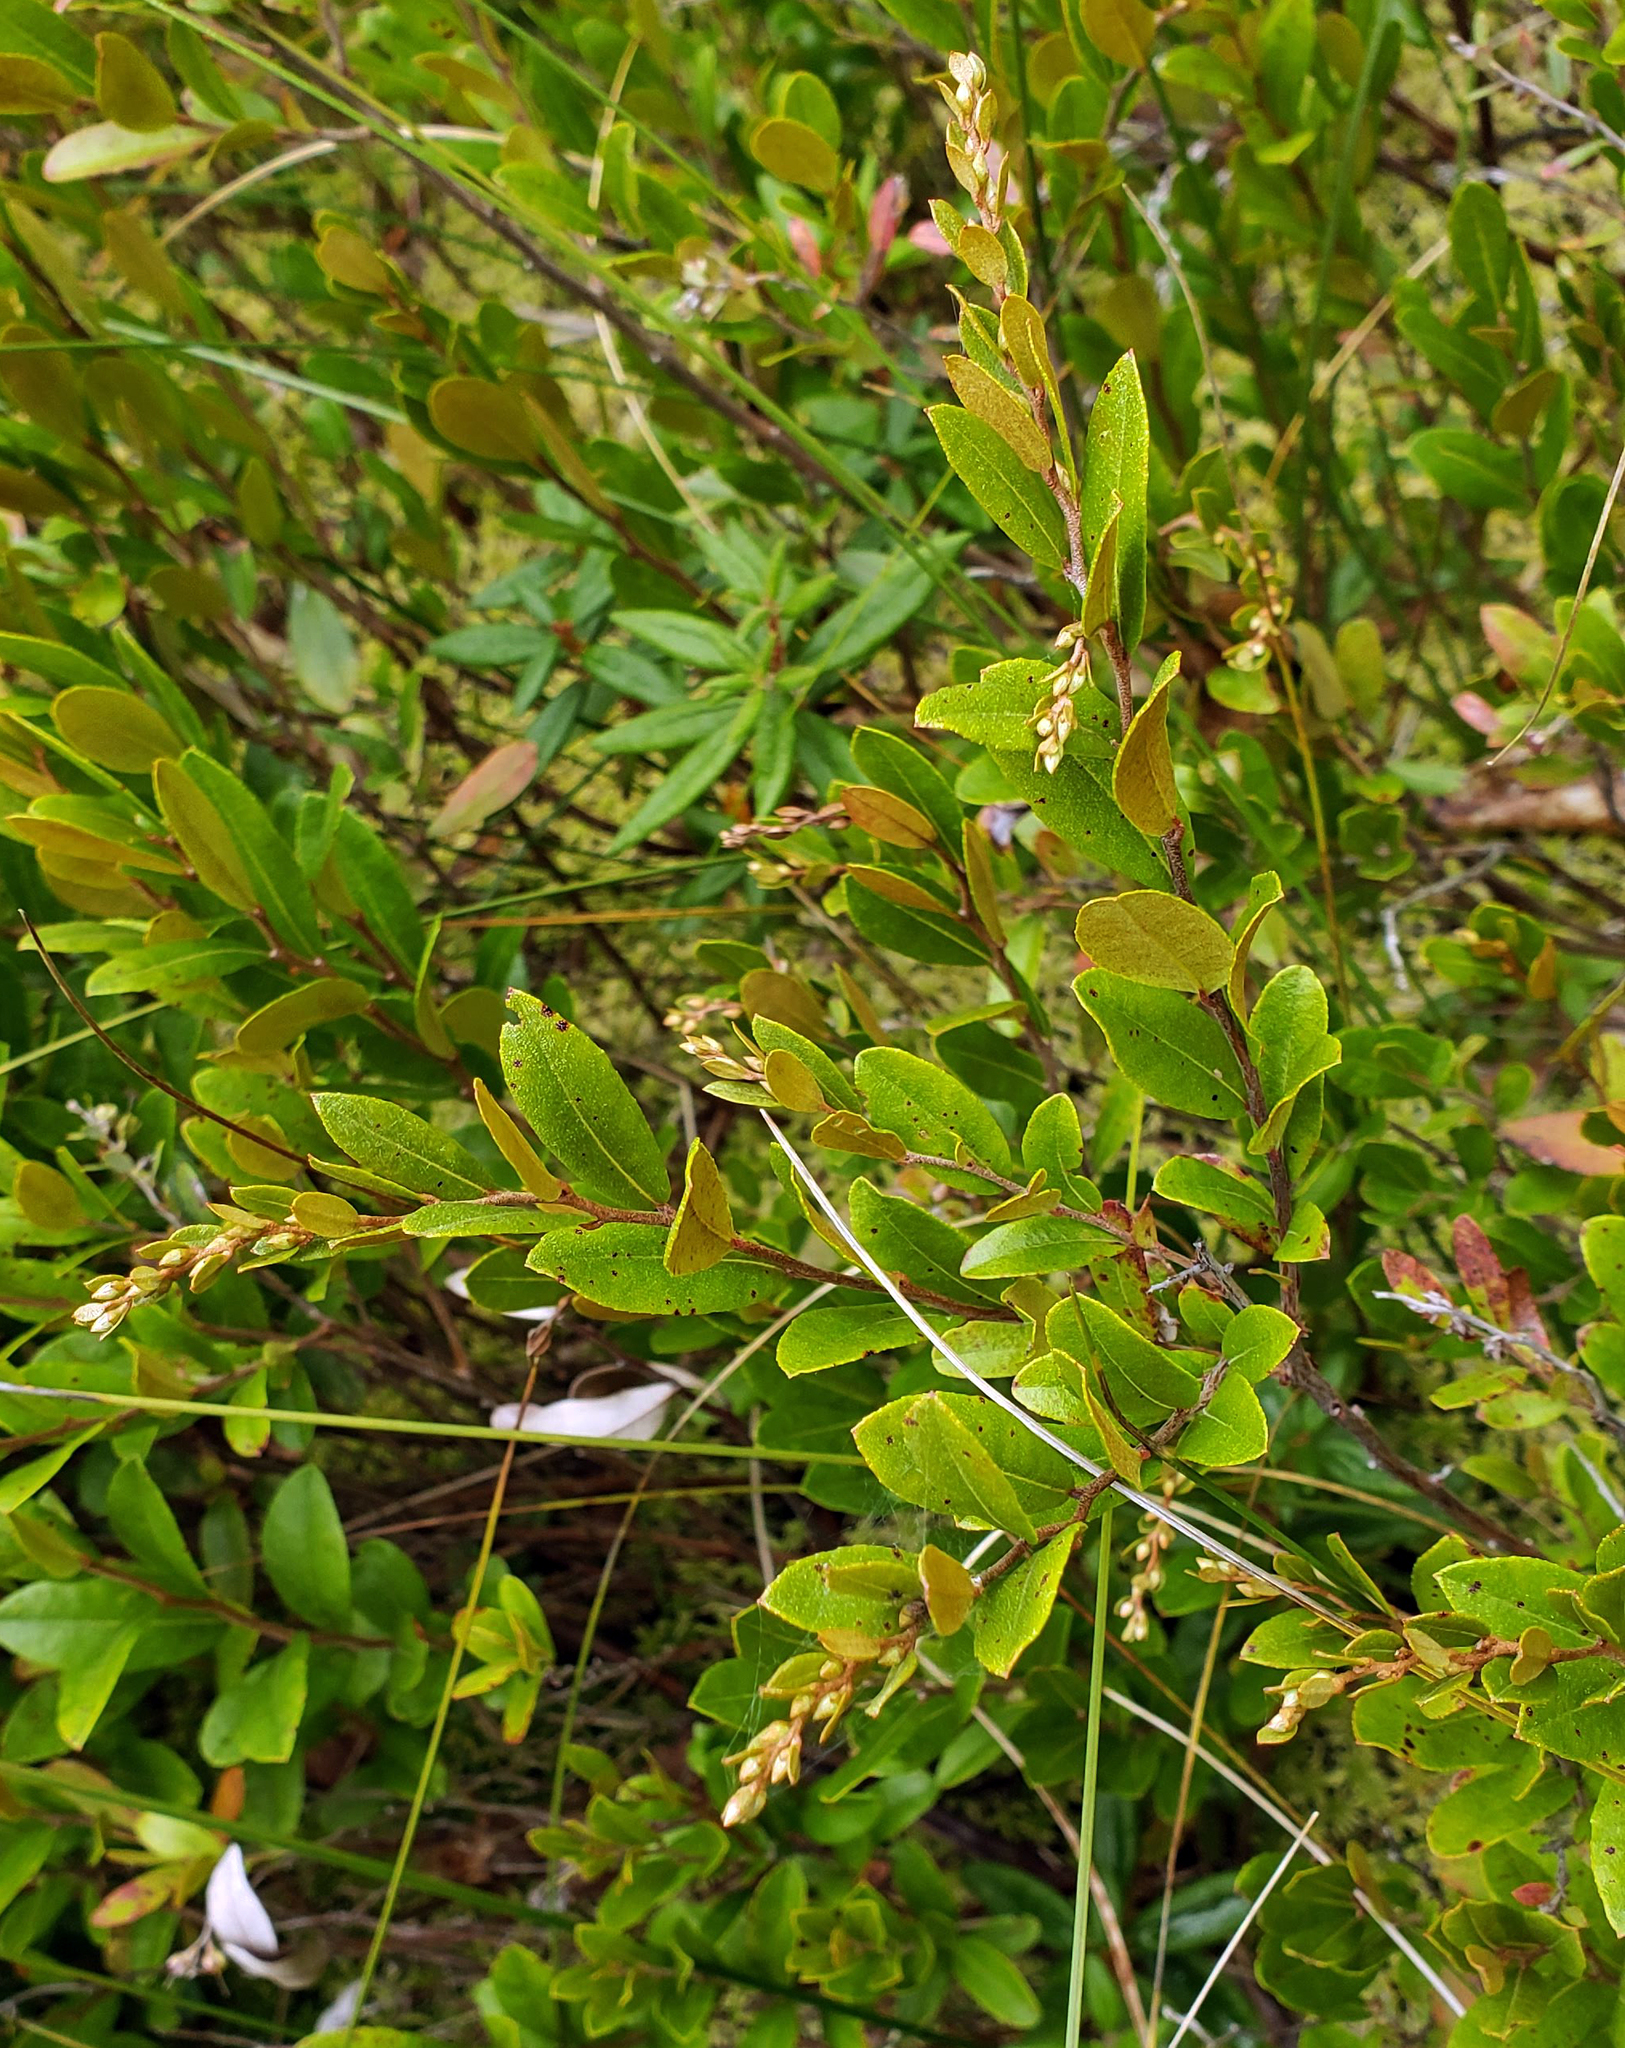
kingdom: Plantae
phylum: Tracheophyta
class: Magnoliopsida
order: Ericales
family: Ericaceae
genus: Chamaedaphne
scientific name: Chamaedaphne calyculata
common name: Leatherleaf
